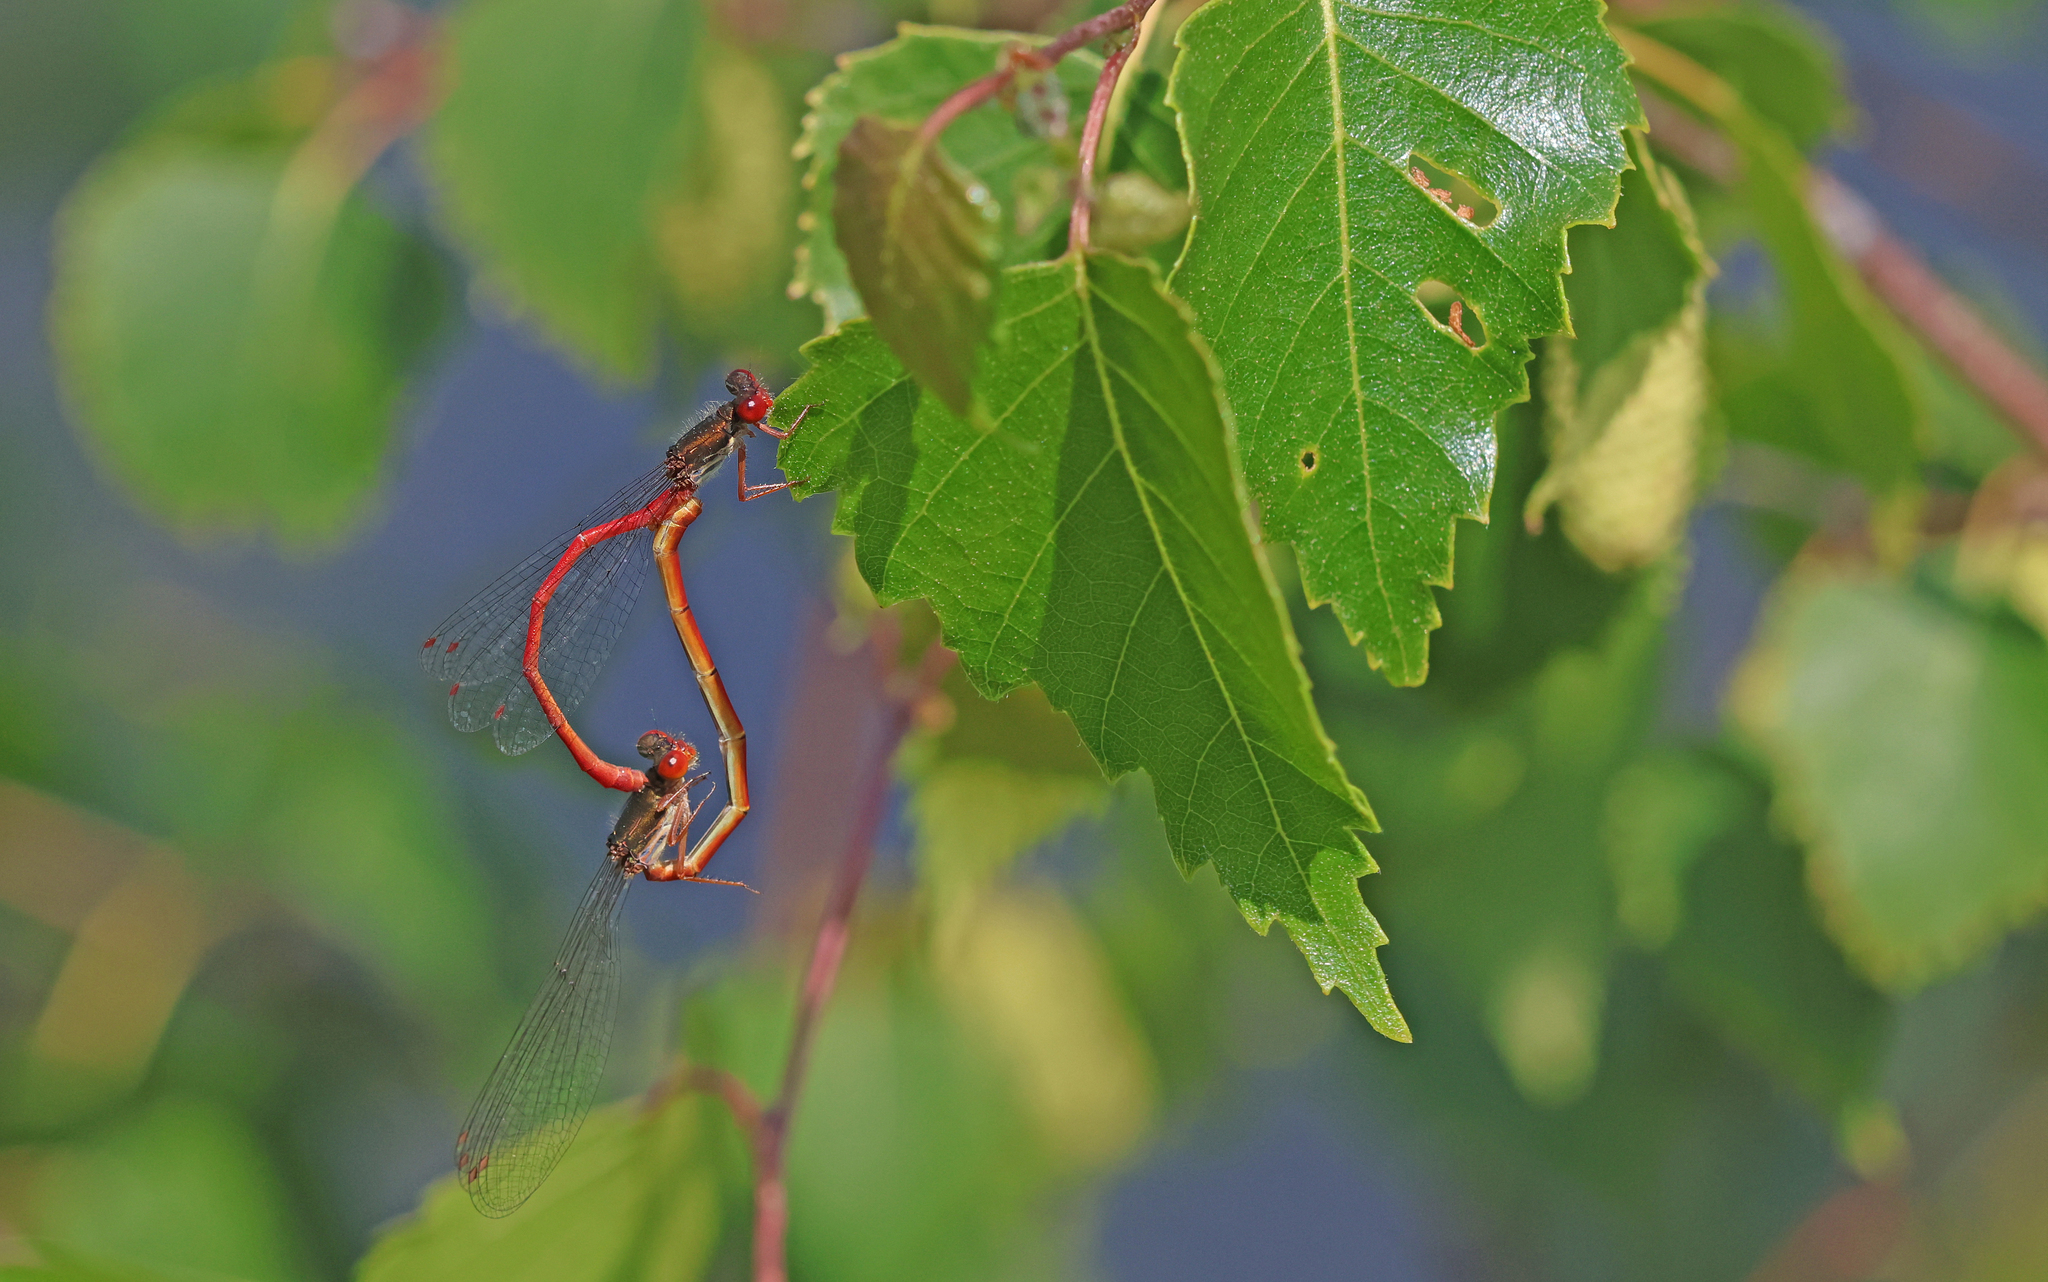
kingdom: Animalia
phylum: Arthropoda
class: Insecta
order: Odonata
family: Coenagrionidae
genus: Ceriagrion
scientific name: Ceriagrion tenellum
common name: Small red damselfly
